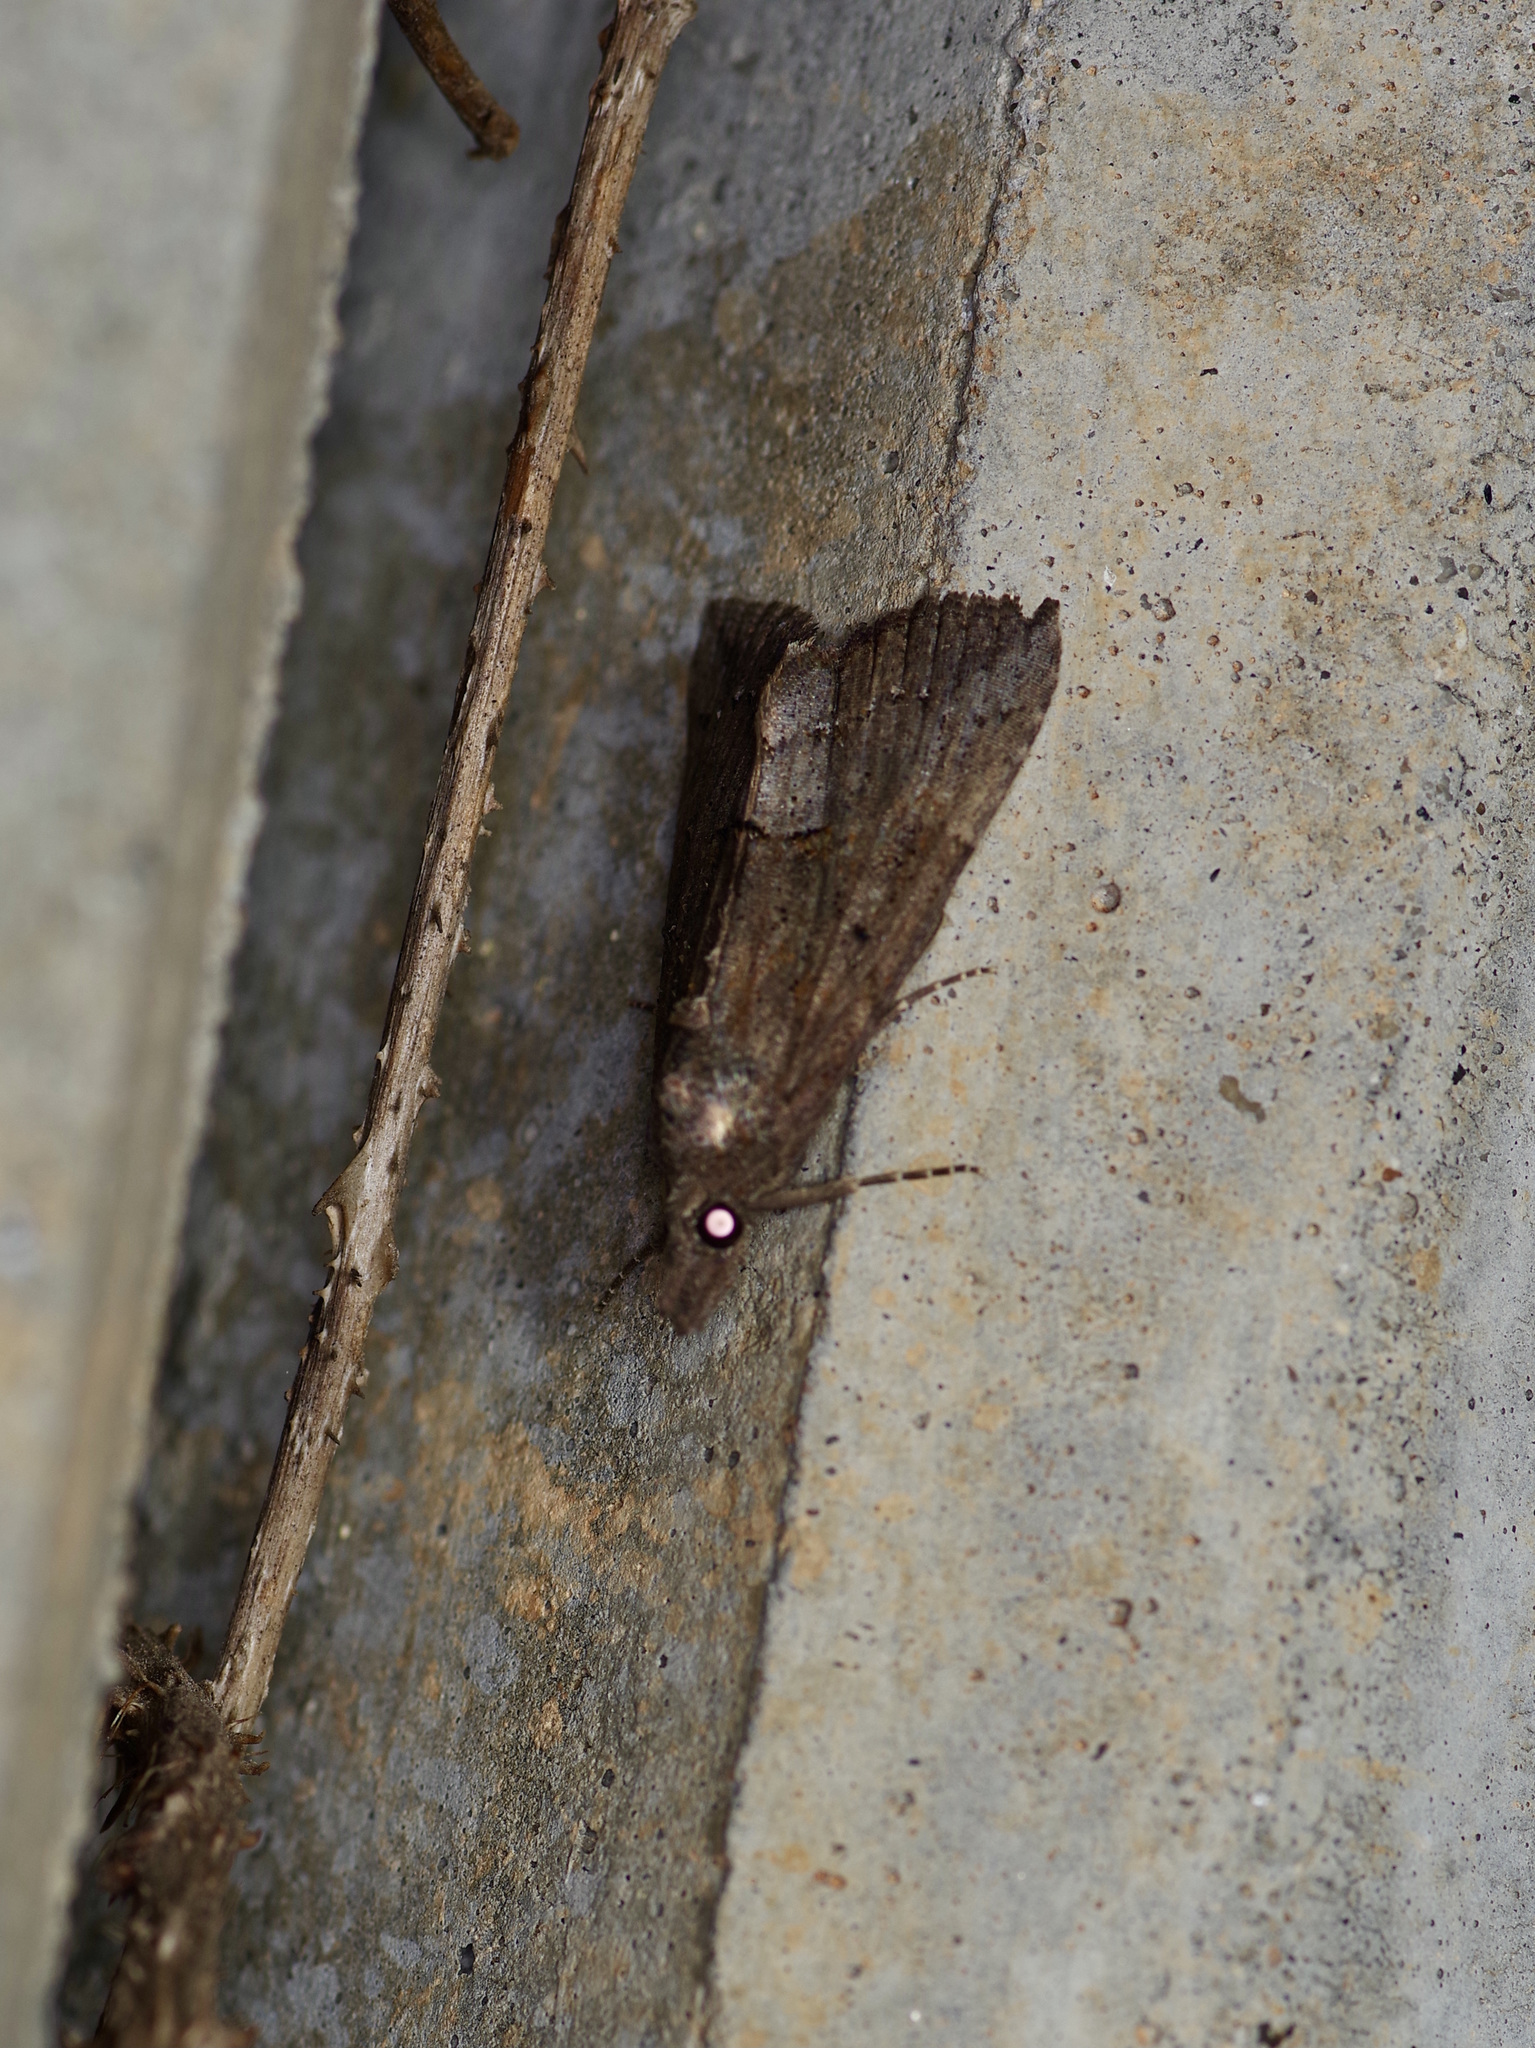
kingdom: Animalia
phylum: Arthropoda
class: Insecta
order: Lepidoptera
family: Erebidae
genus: Hypena
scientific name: Hypena scabra
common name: Green cloverworm
